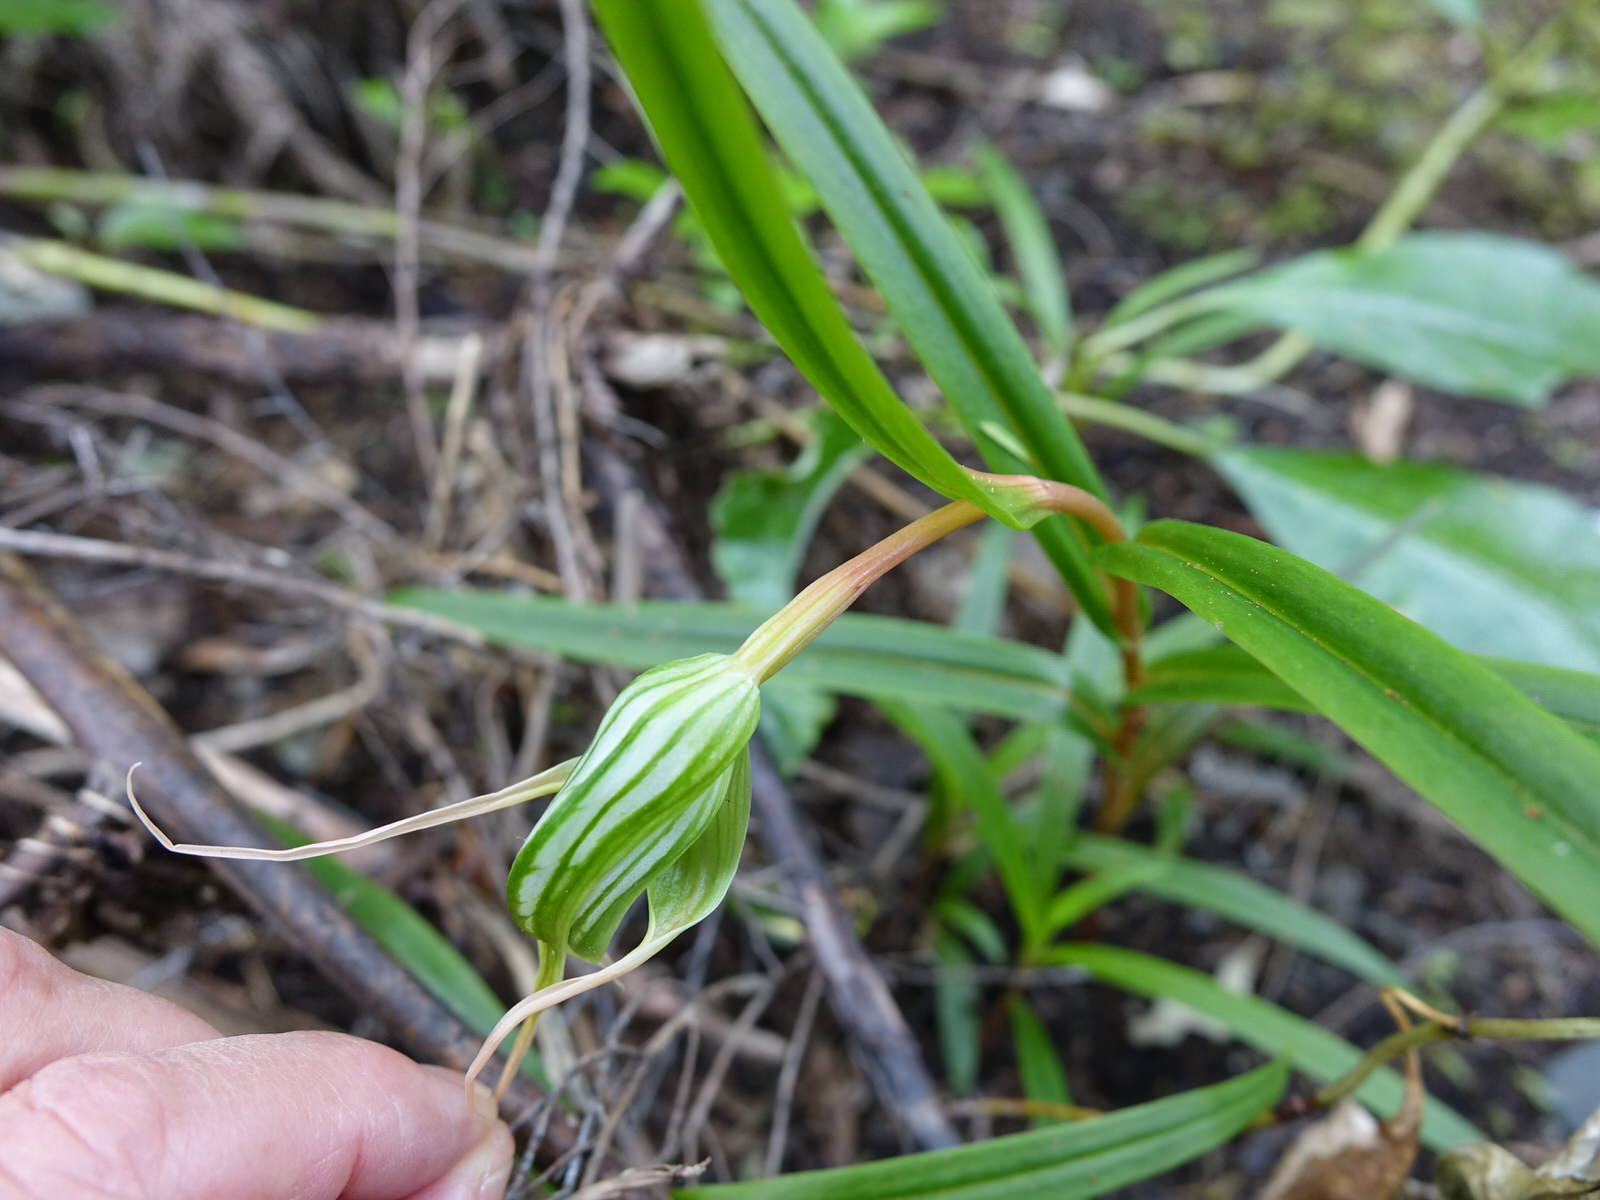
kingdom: Plantae
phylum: Tracheophyta
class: Liliopsida
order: Asparagales
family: Orchidaceae
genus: Pterostylis
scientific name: Pterostylis banksii
